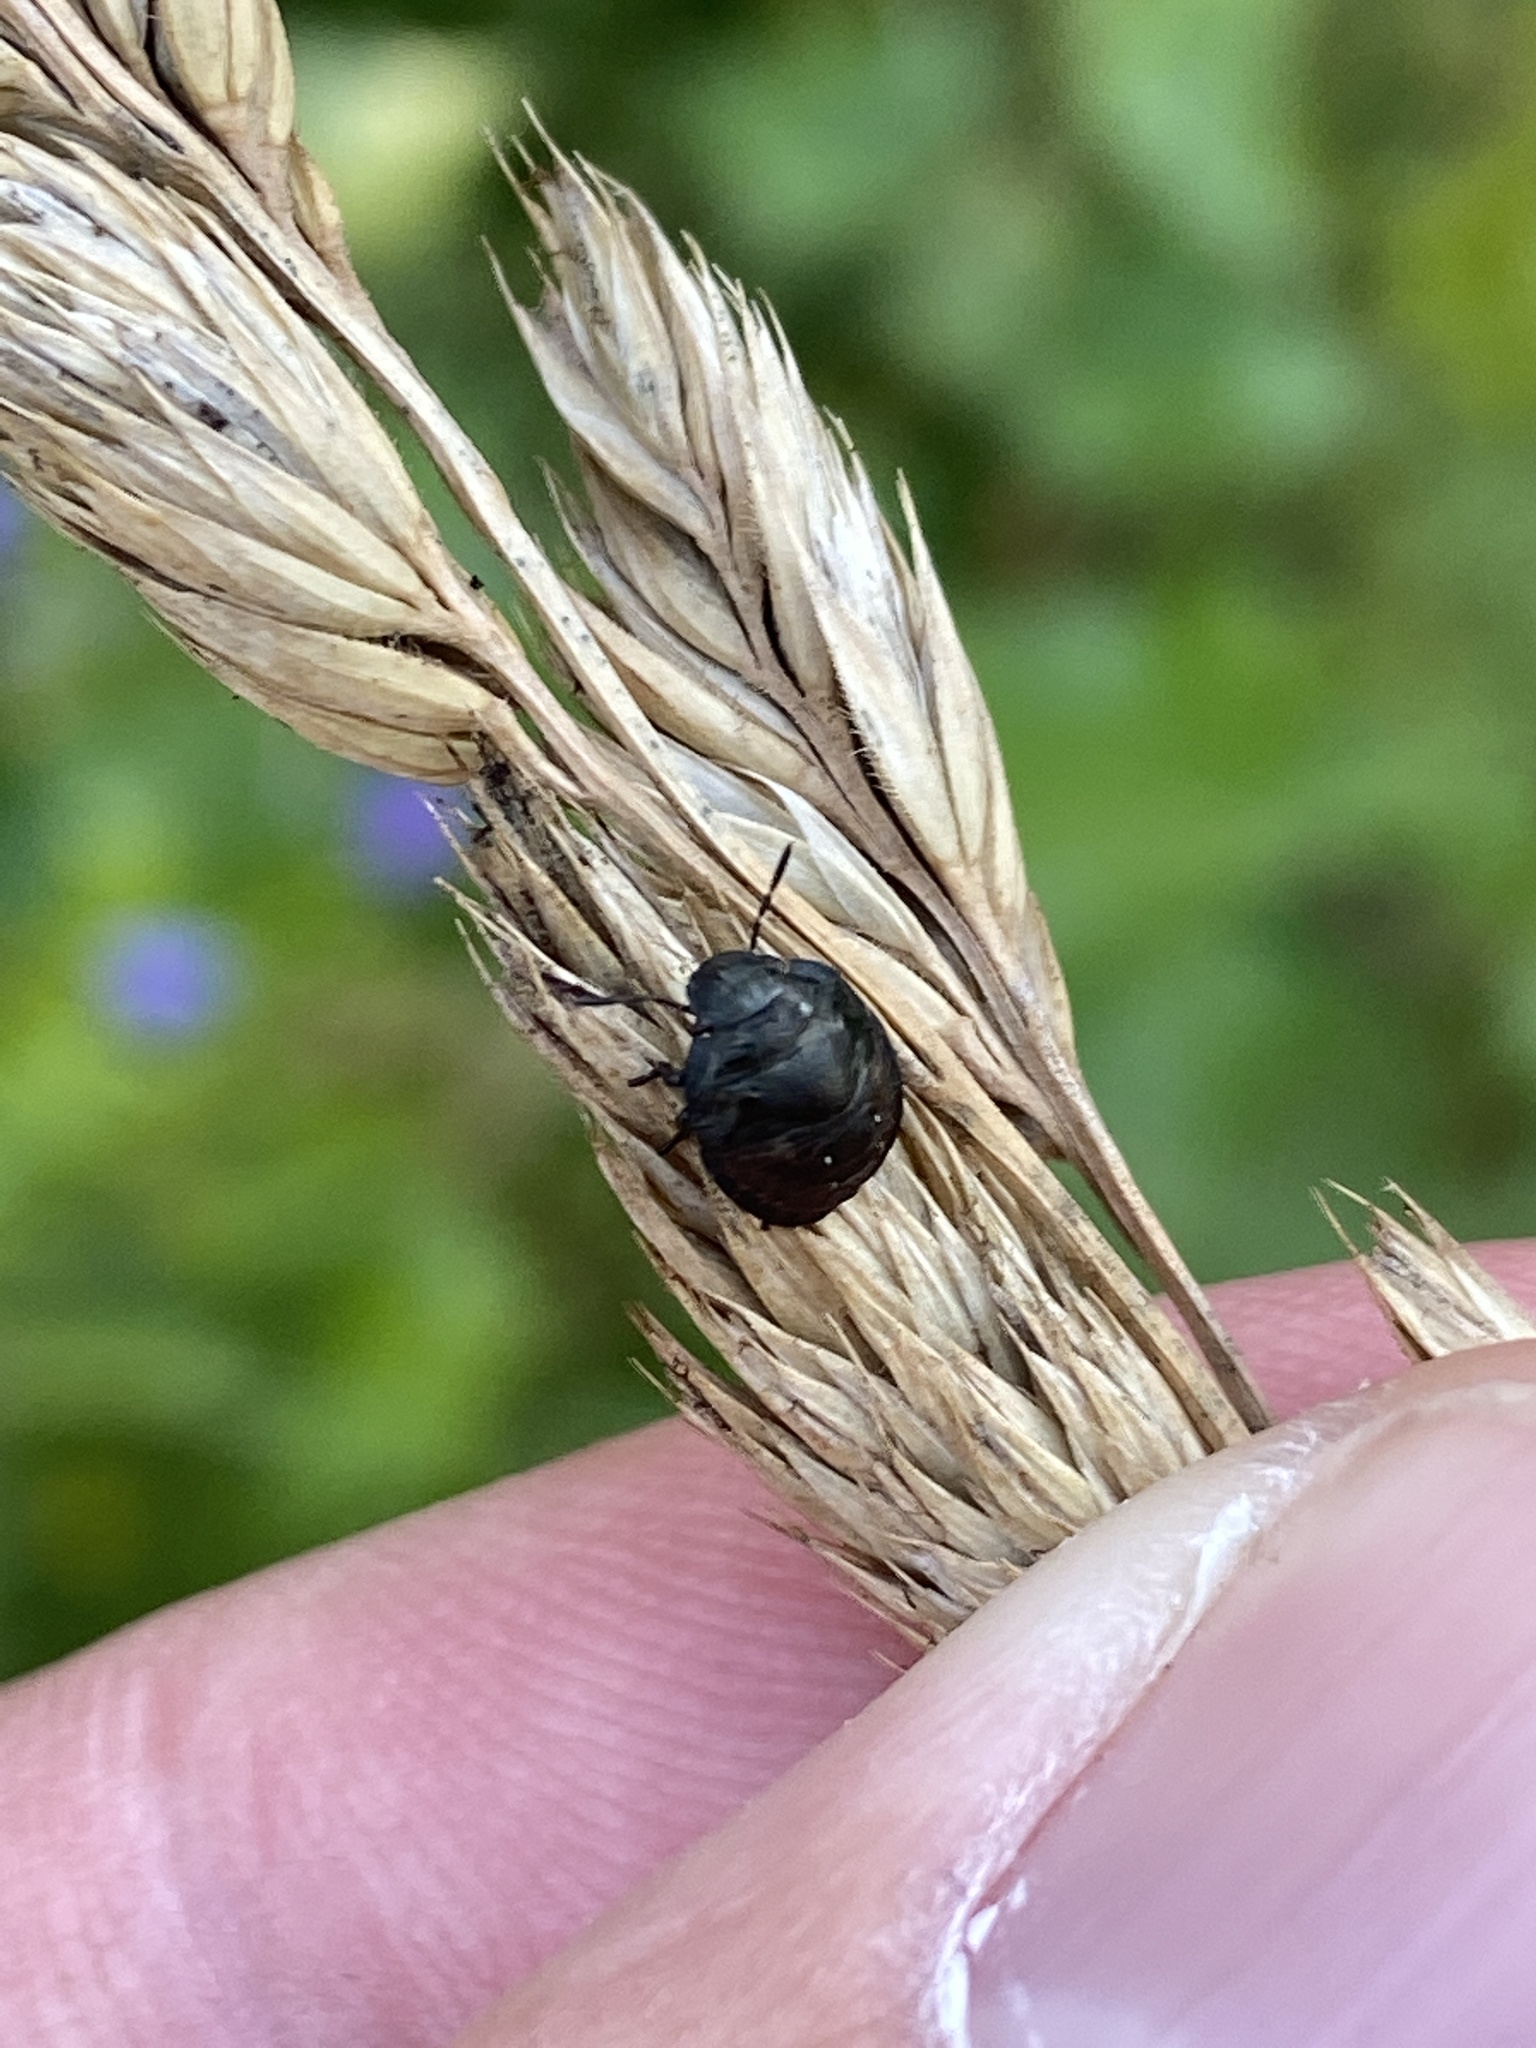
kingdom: Animalia
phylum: Arthropoda
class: Insecta
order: Hemiptera
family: Scutelleridae
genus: Eurygaster
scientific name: Eurygaster testudinaria
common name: Tortoise bug
